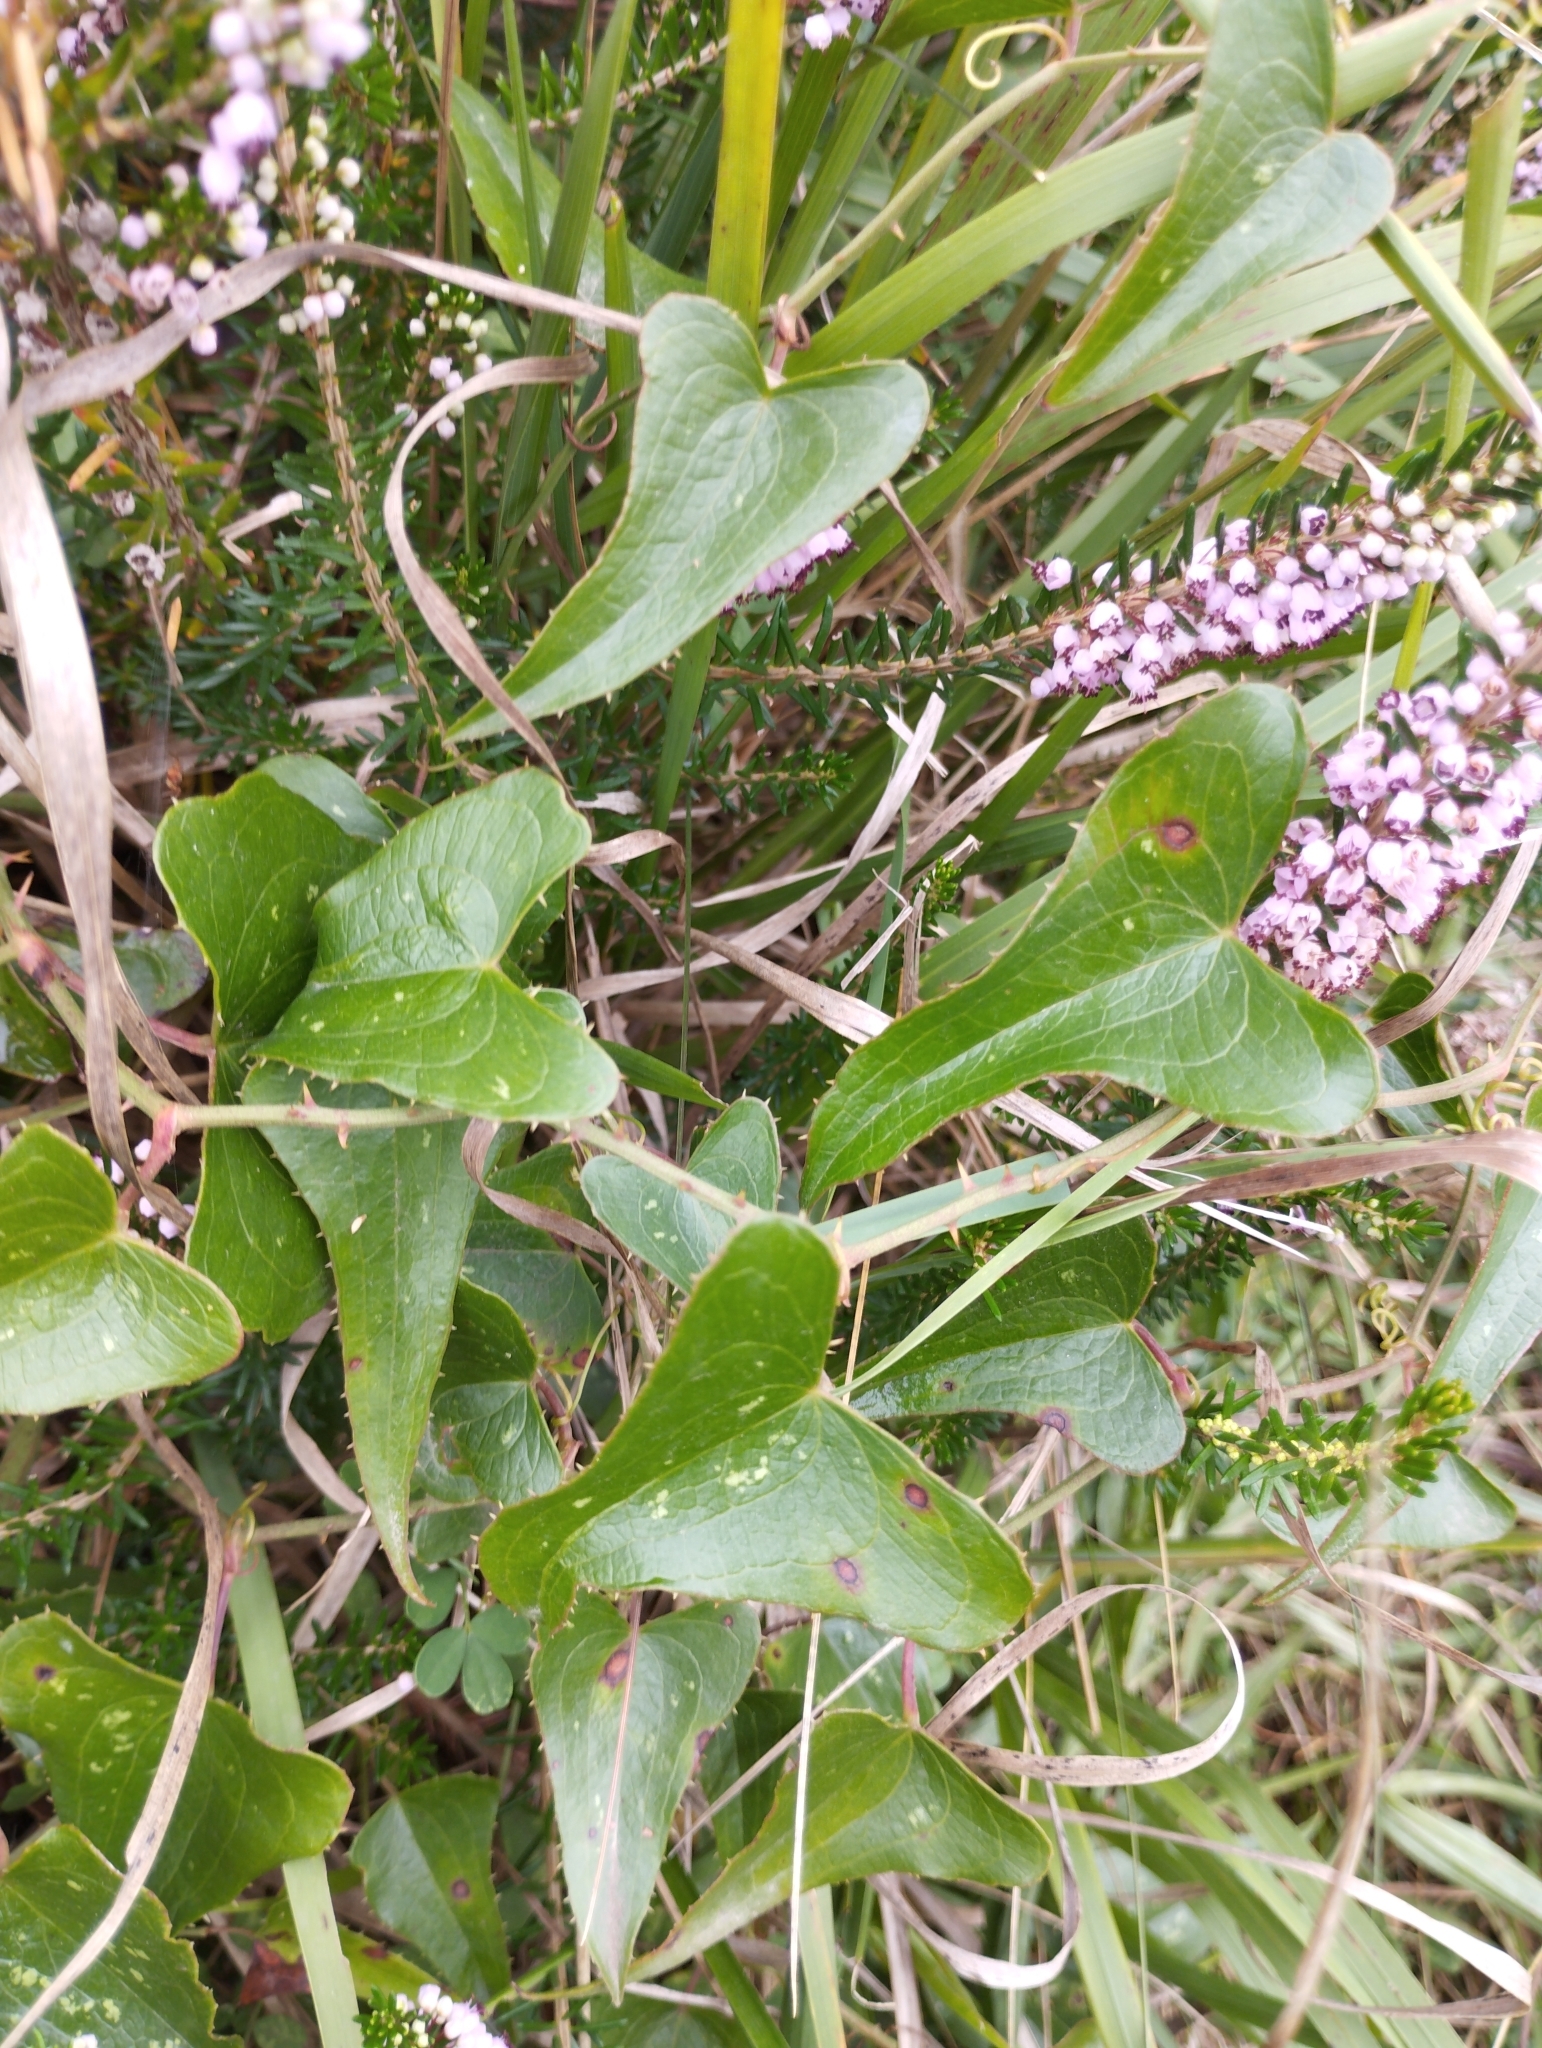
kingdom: Plantae
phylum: Tracheophyta
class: Liliopsida
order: Liliales
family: Smilacaceae
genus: Smilax
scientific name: Smilax aspera
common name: Common smilax
